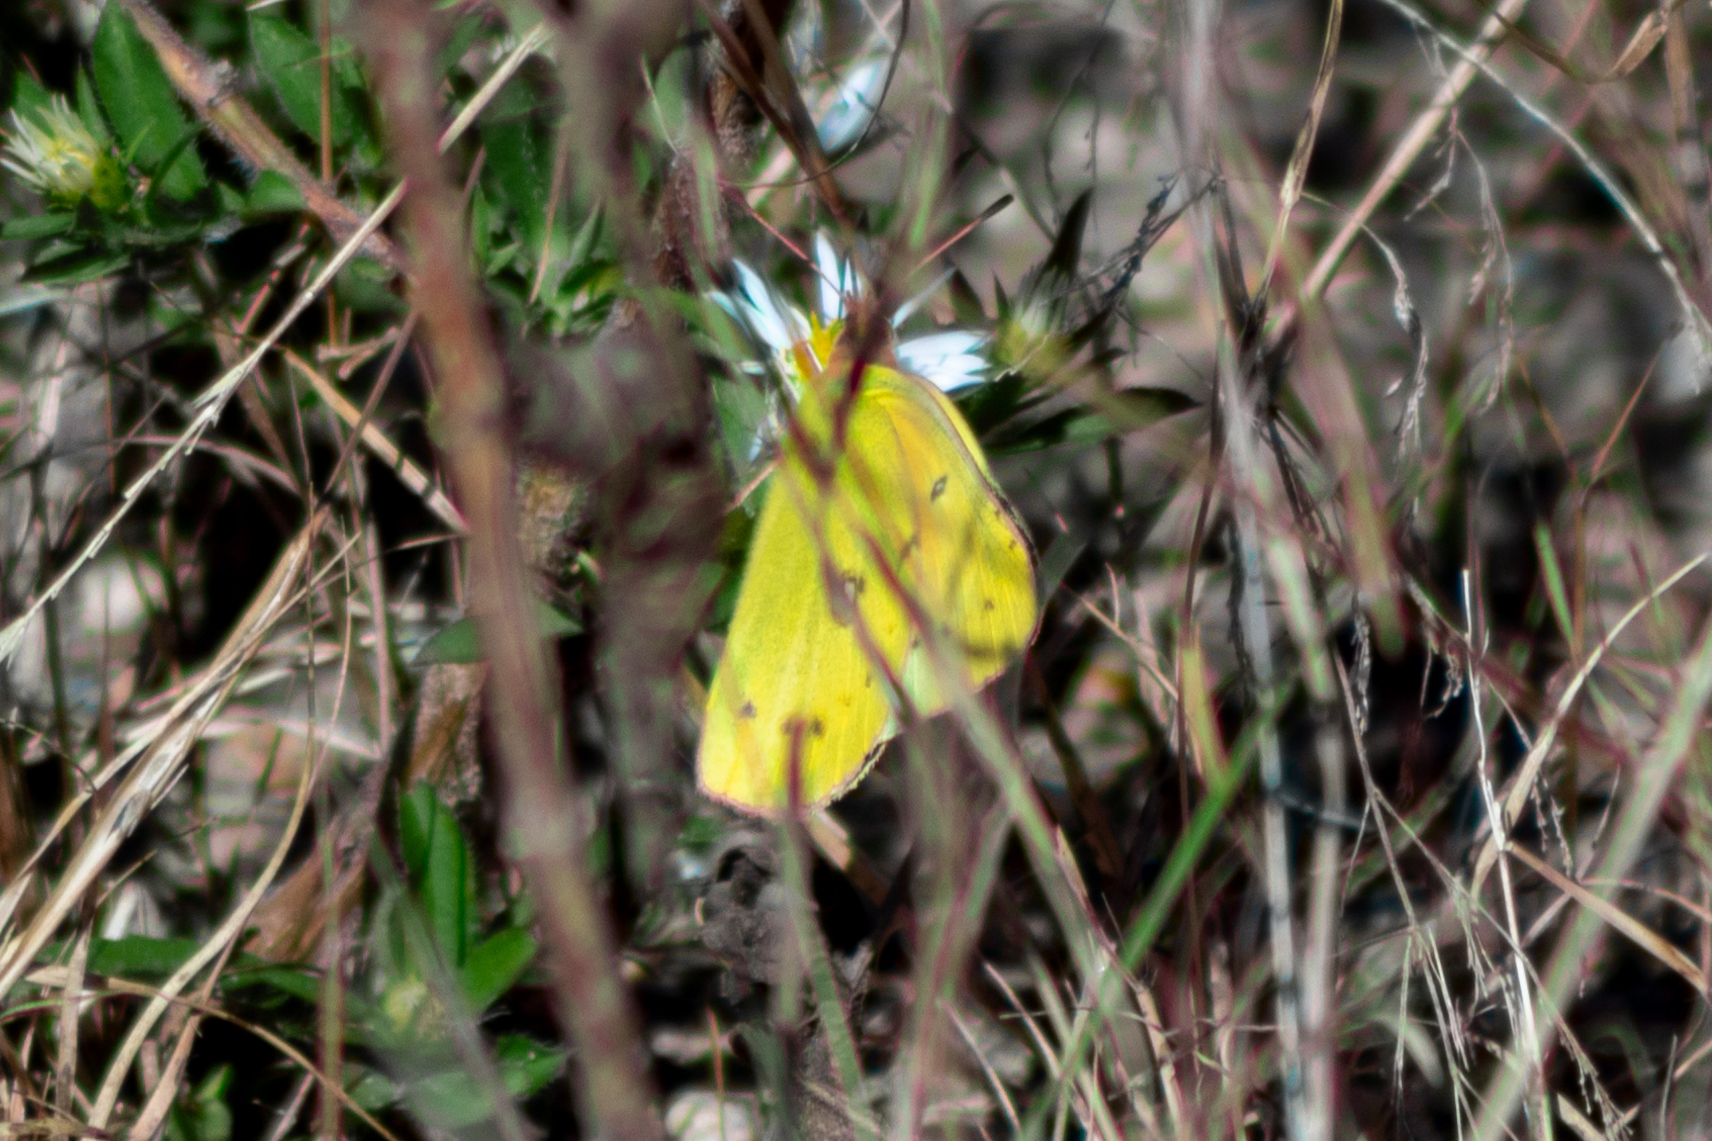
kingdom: Animalia
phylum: Arthropoda
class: Insecta
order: Lepidoptera
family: Pieridae
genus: Colias
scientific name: Colias eurytheme
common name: Alfalfa butterfly
